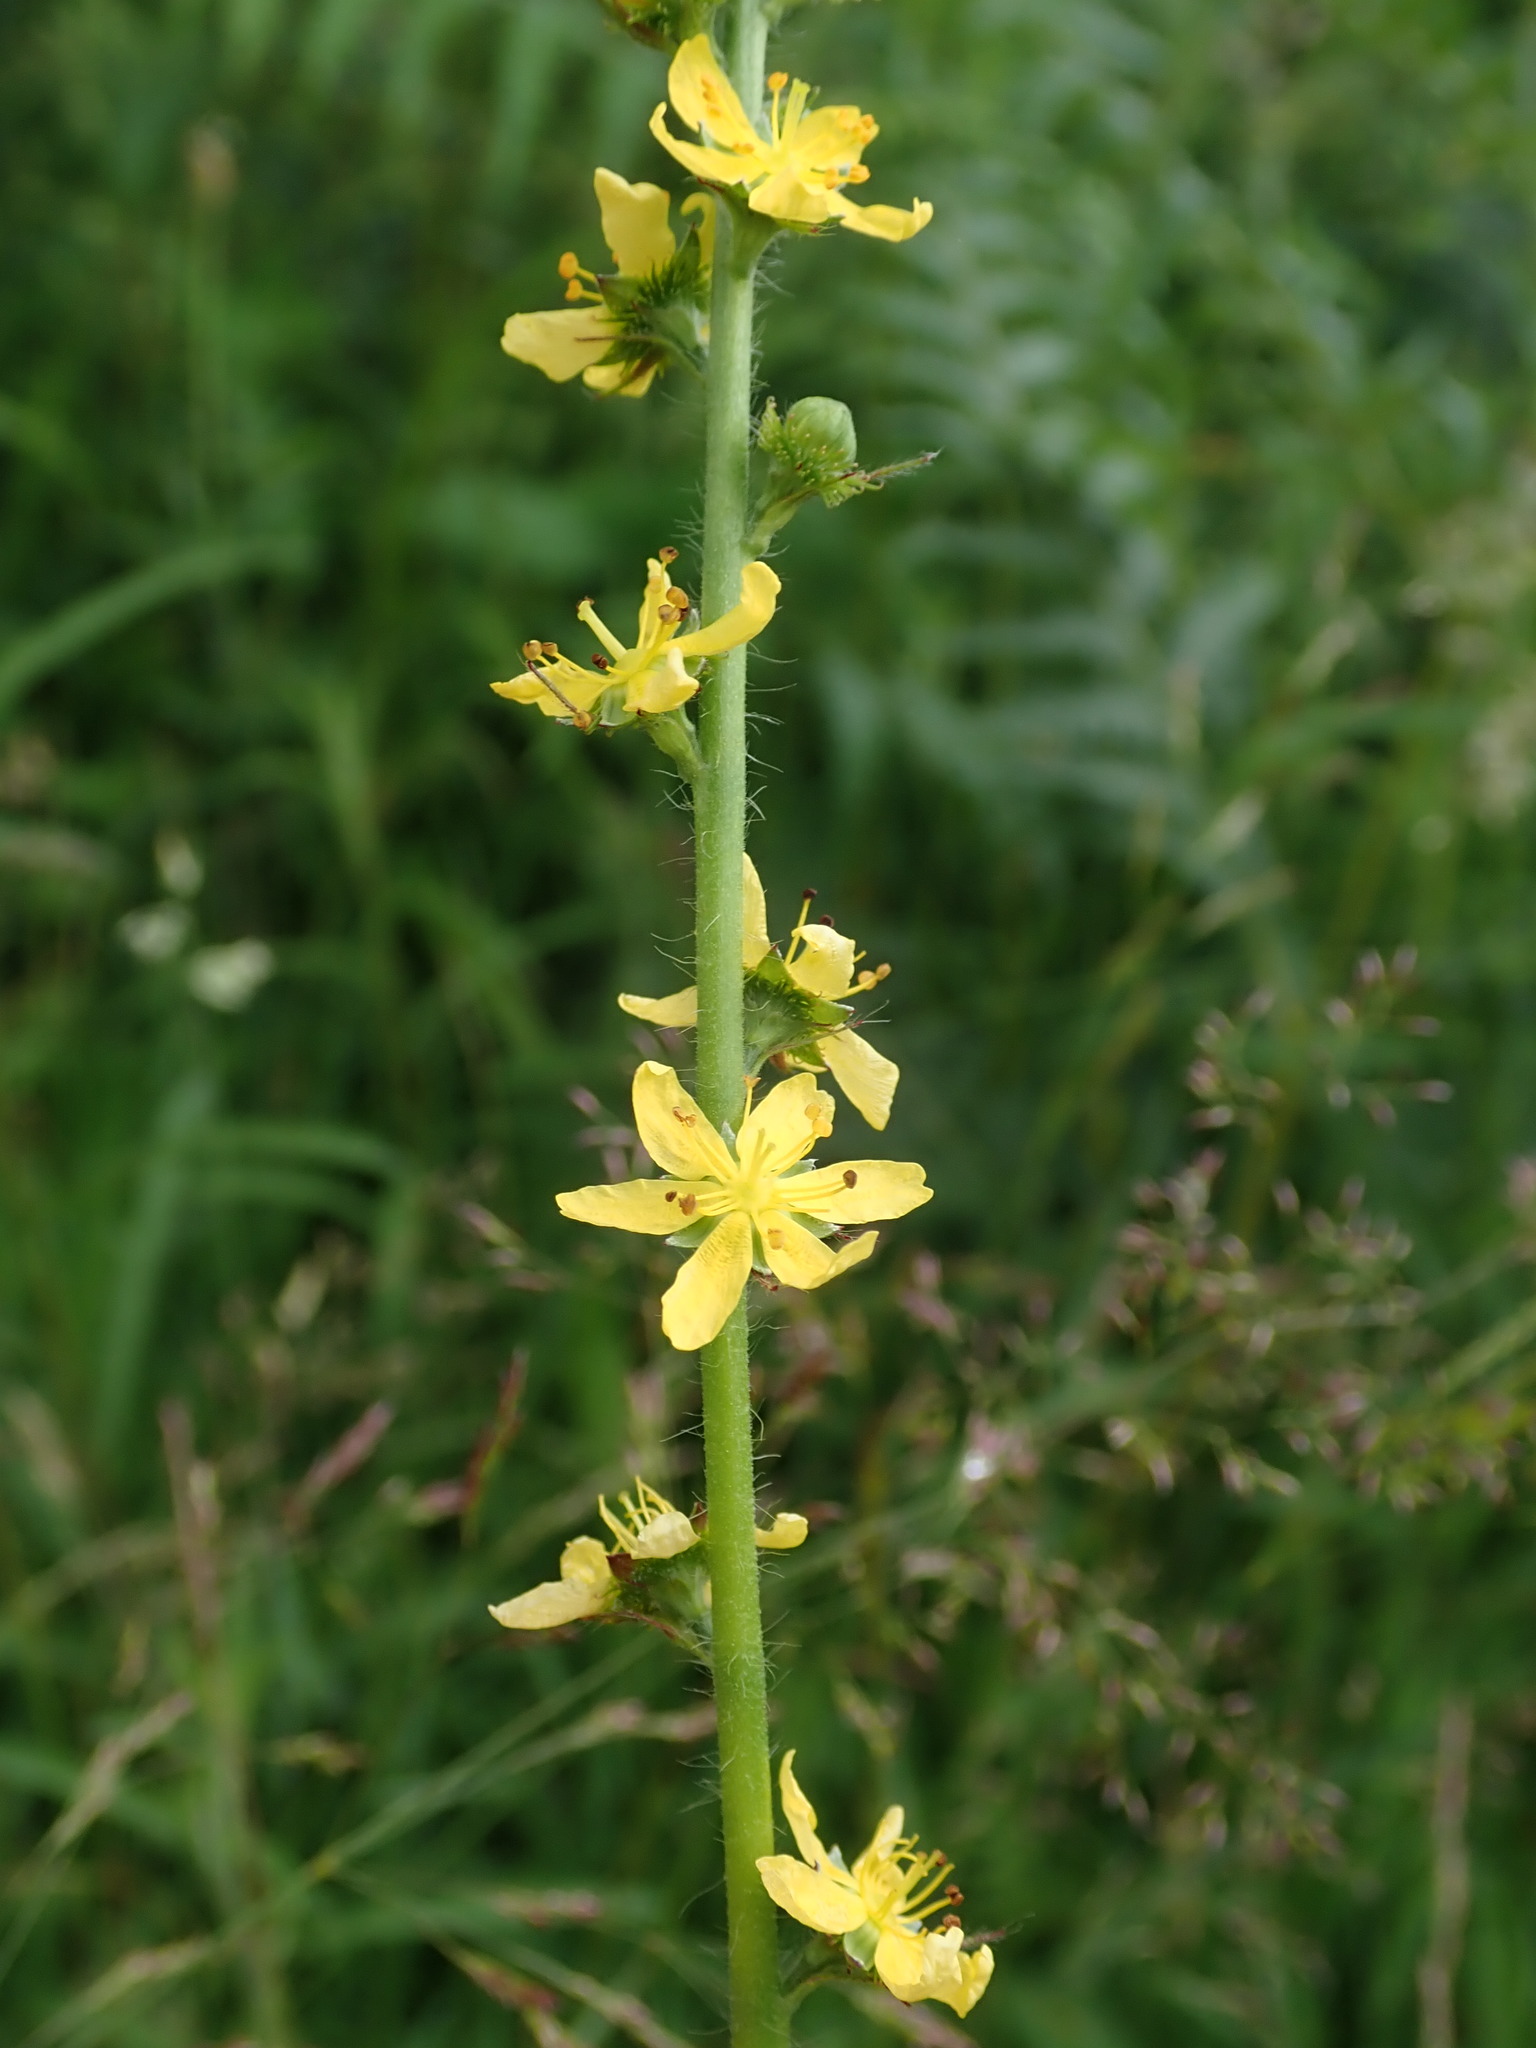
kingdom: Plantae
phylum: Tracheophyta
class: Magnoliopsida
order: Rosales
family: Rosaceae
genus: Agrimonia
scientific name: Agrimonia eupatoria
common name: Agrimony
